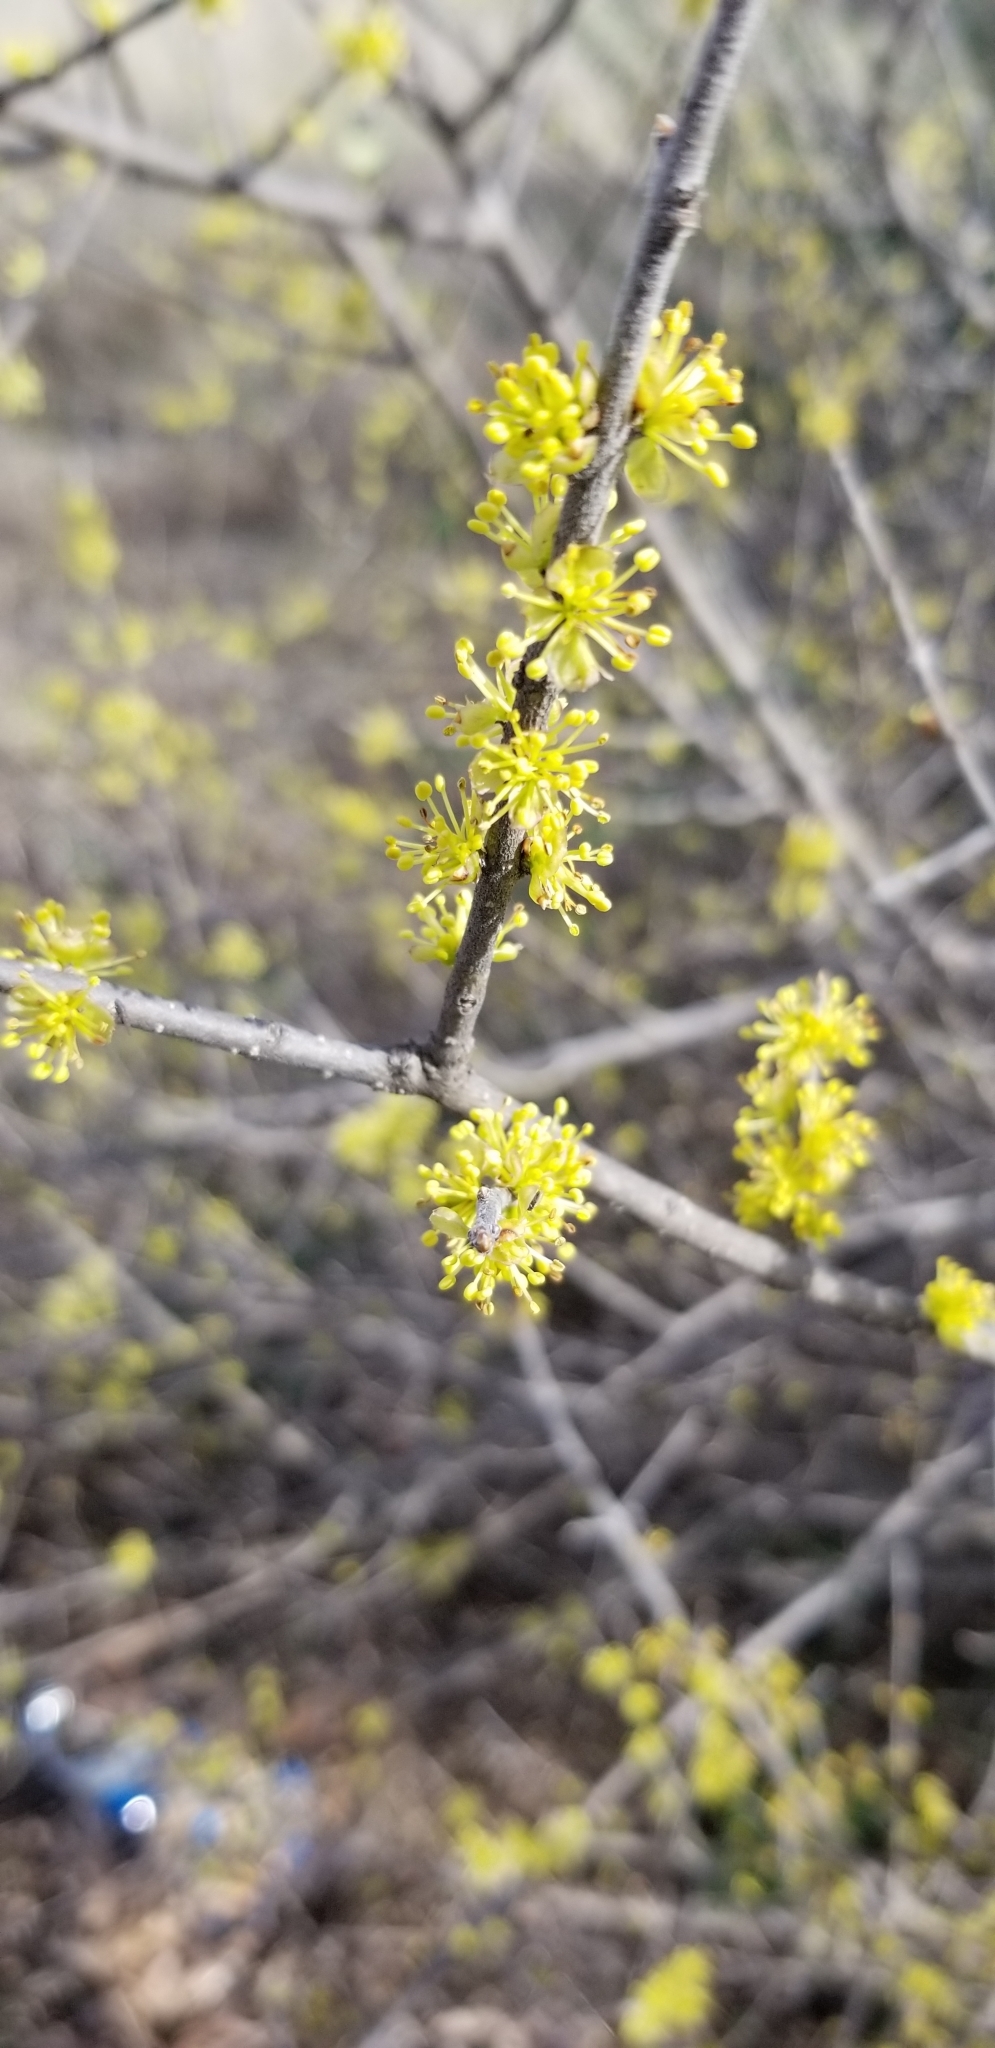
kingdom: Plantae
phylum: Tracheophyta
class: Magnoliopsida
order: Lamiales
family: Oleaceae
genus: Forestiera
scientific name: Forestiera pubescens
